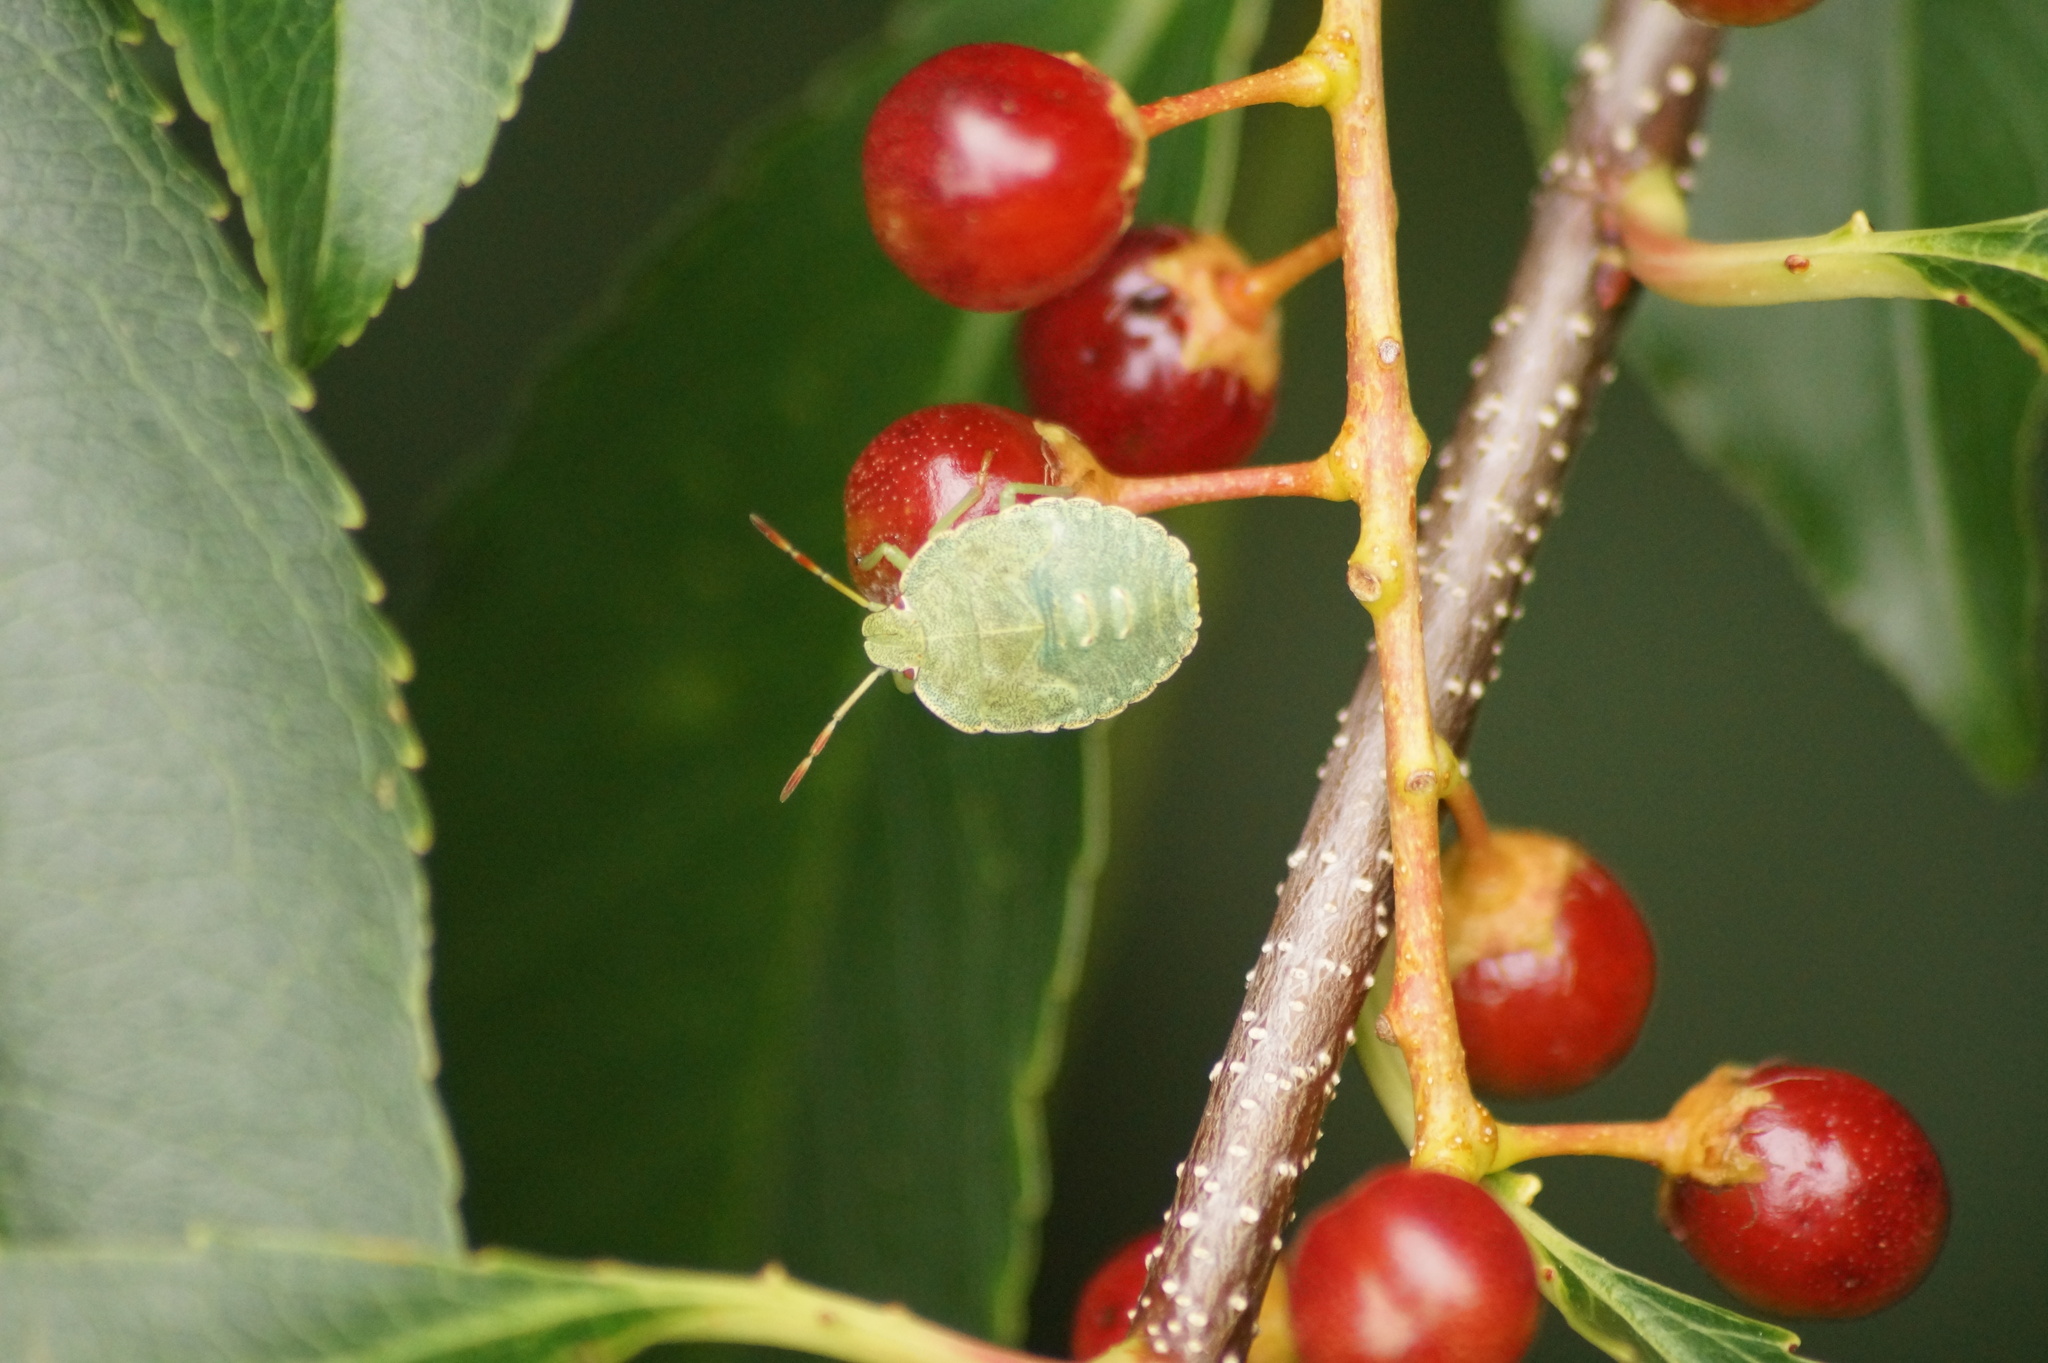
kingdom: Animalia
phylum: Arthropoda
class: Insecta
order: Hemiptera
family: Pentatomidae
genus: Palomena
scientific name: Palomena prasina
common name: Green shieldbug
